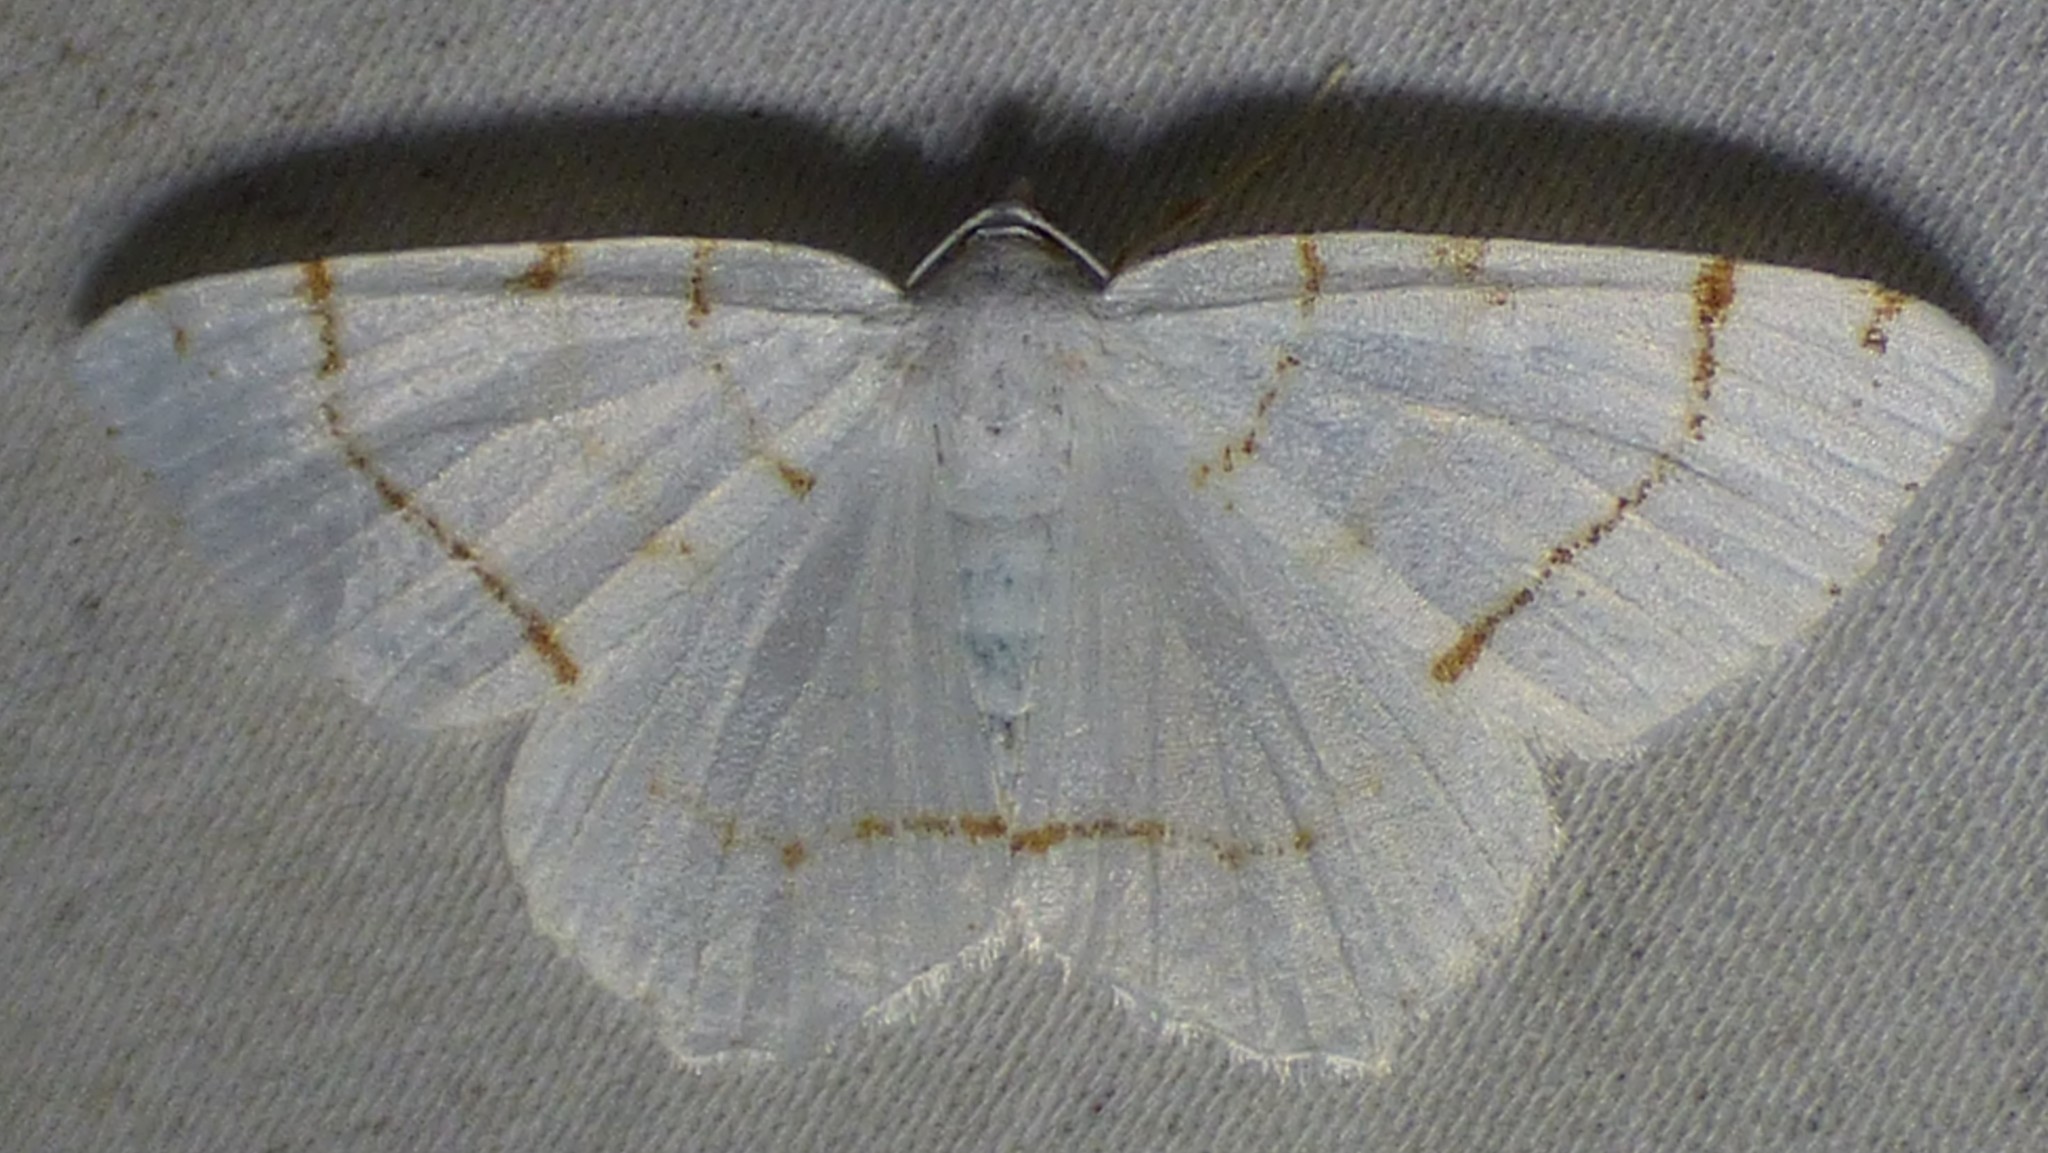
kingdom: Animalia
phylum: Arthropoda
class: Insecta
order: Lepidoptera
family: Geometridae
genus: Macaria
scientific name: Macaria pustularia
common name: Lesser maple spanworm moth
